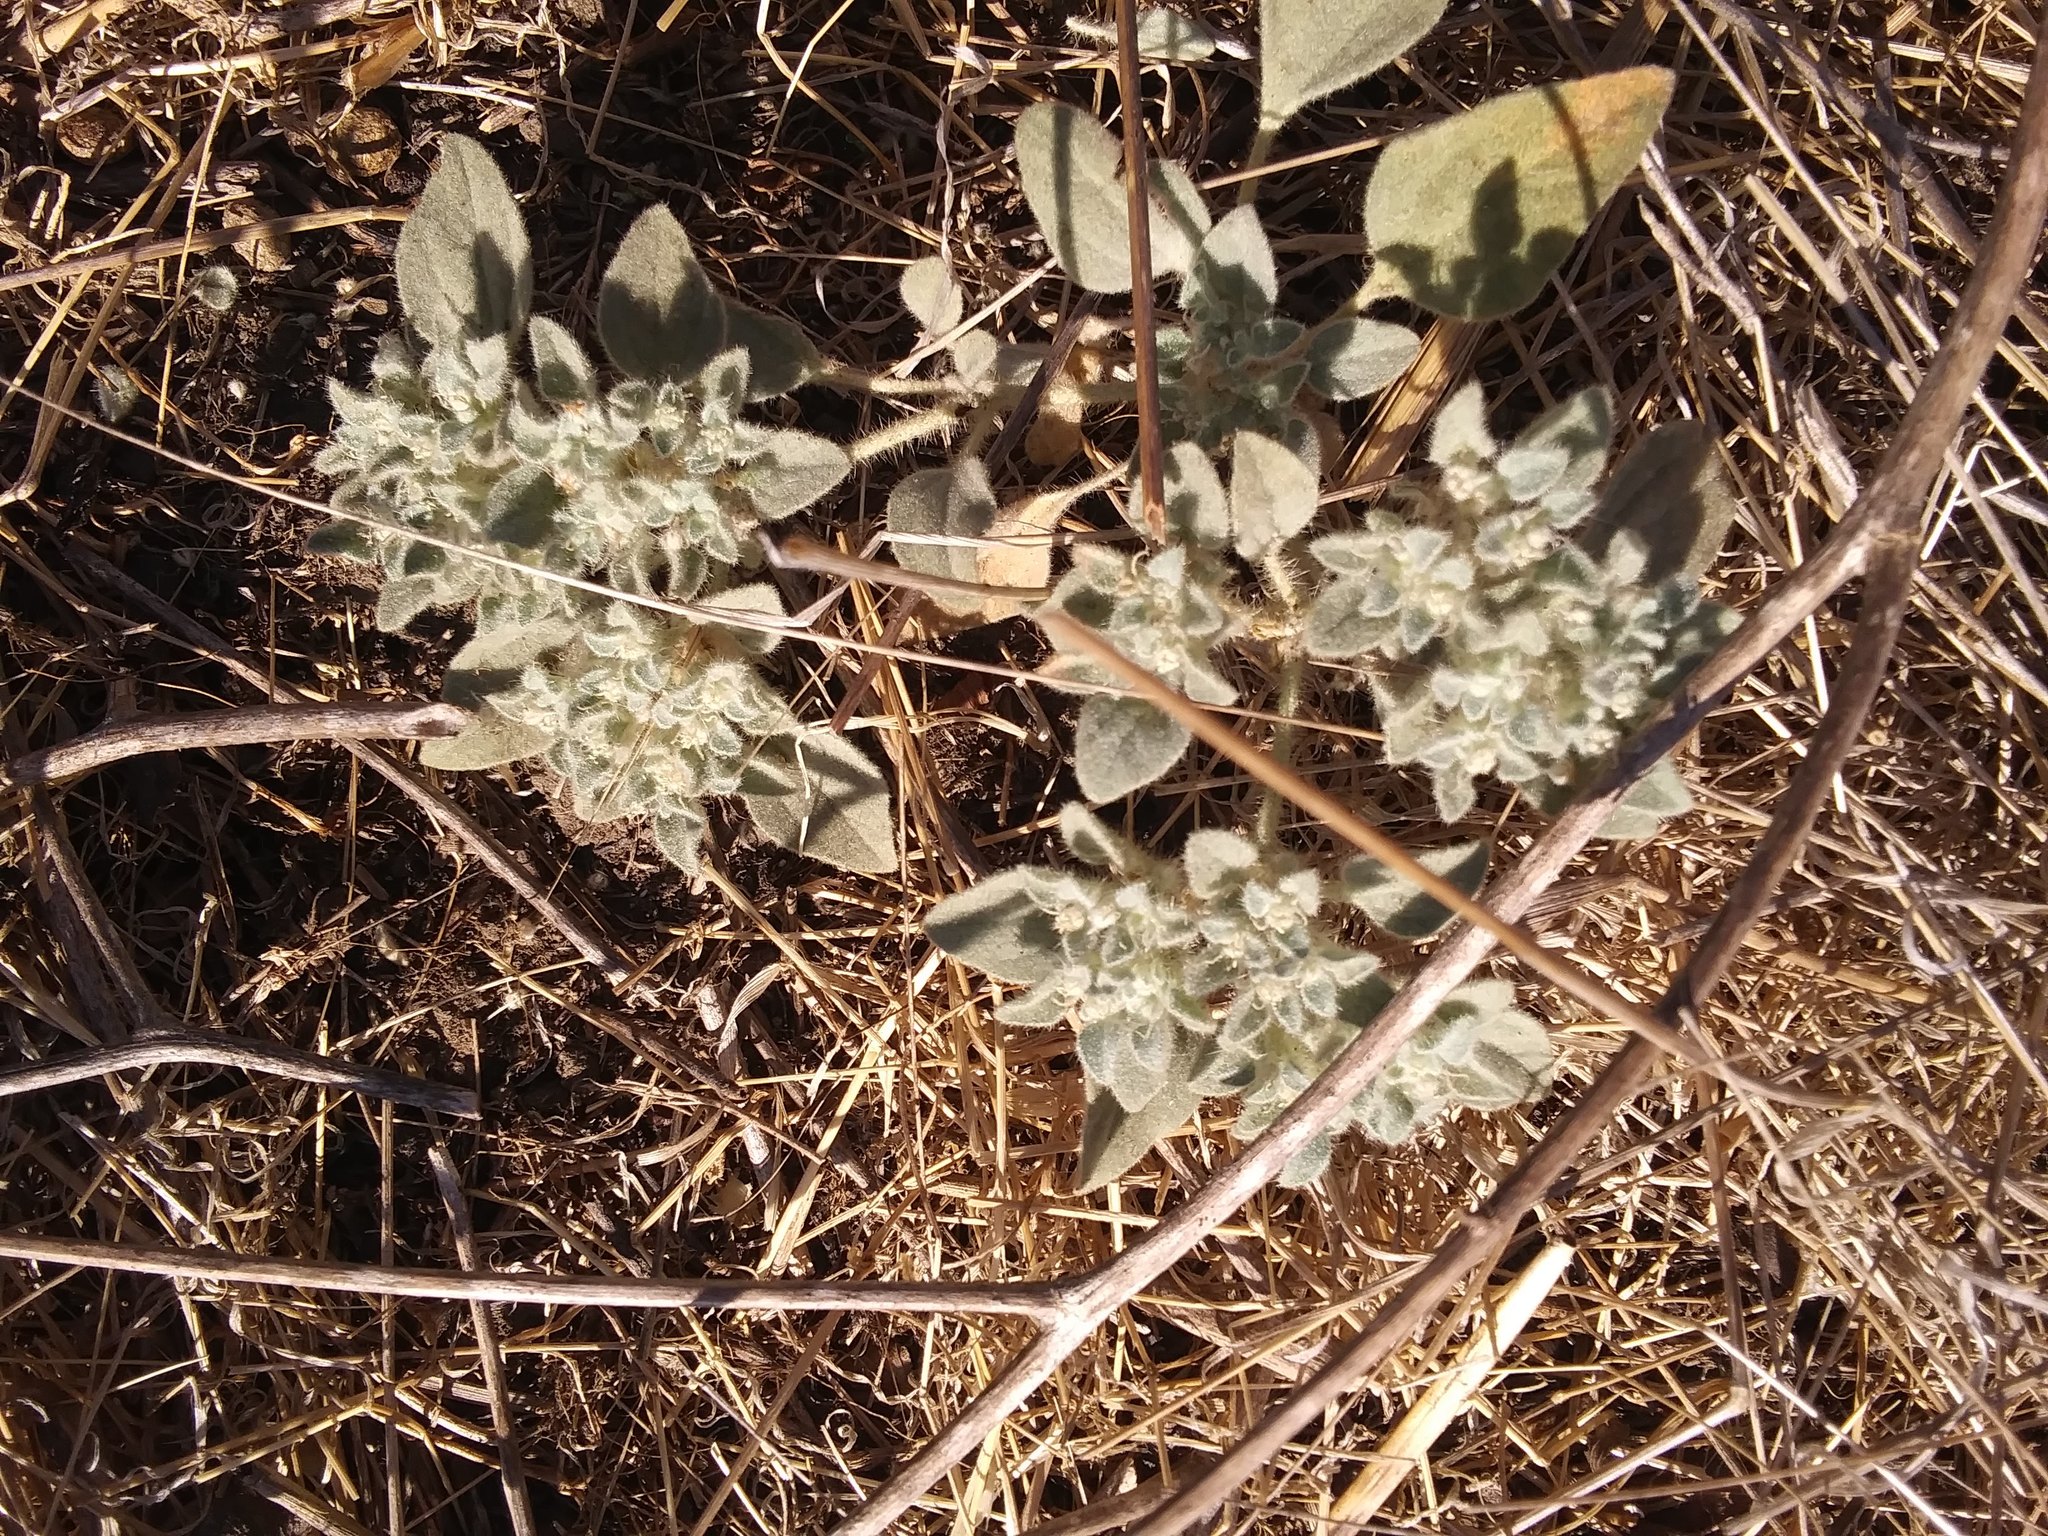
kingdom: Plantae
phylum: Tracheophyta
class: Magnoliopsida
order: Malpighiales
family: Euphorbiaceae
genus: Croton
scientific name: Croton setiger
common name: Dove weed
